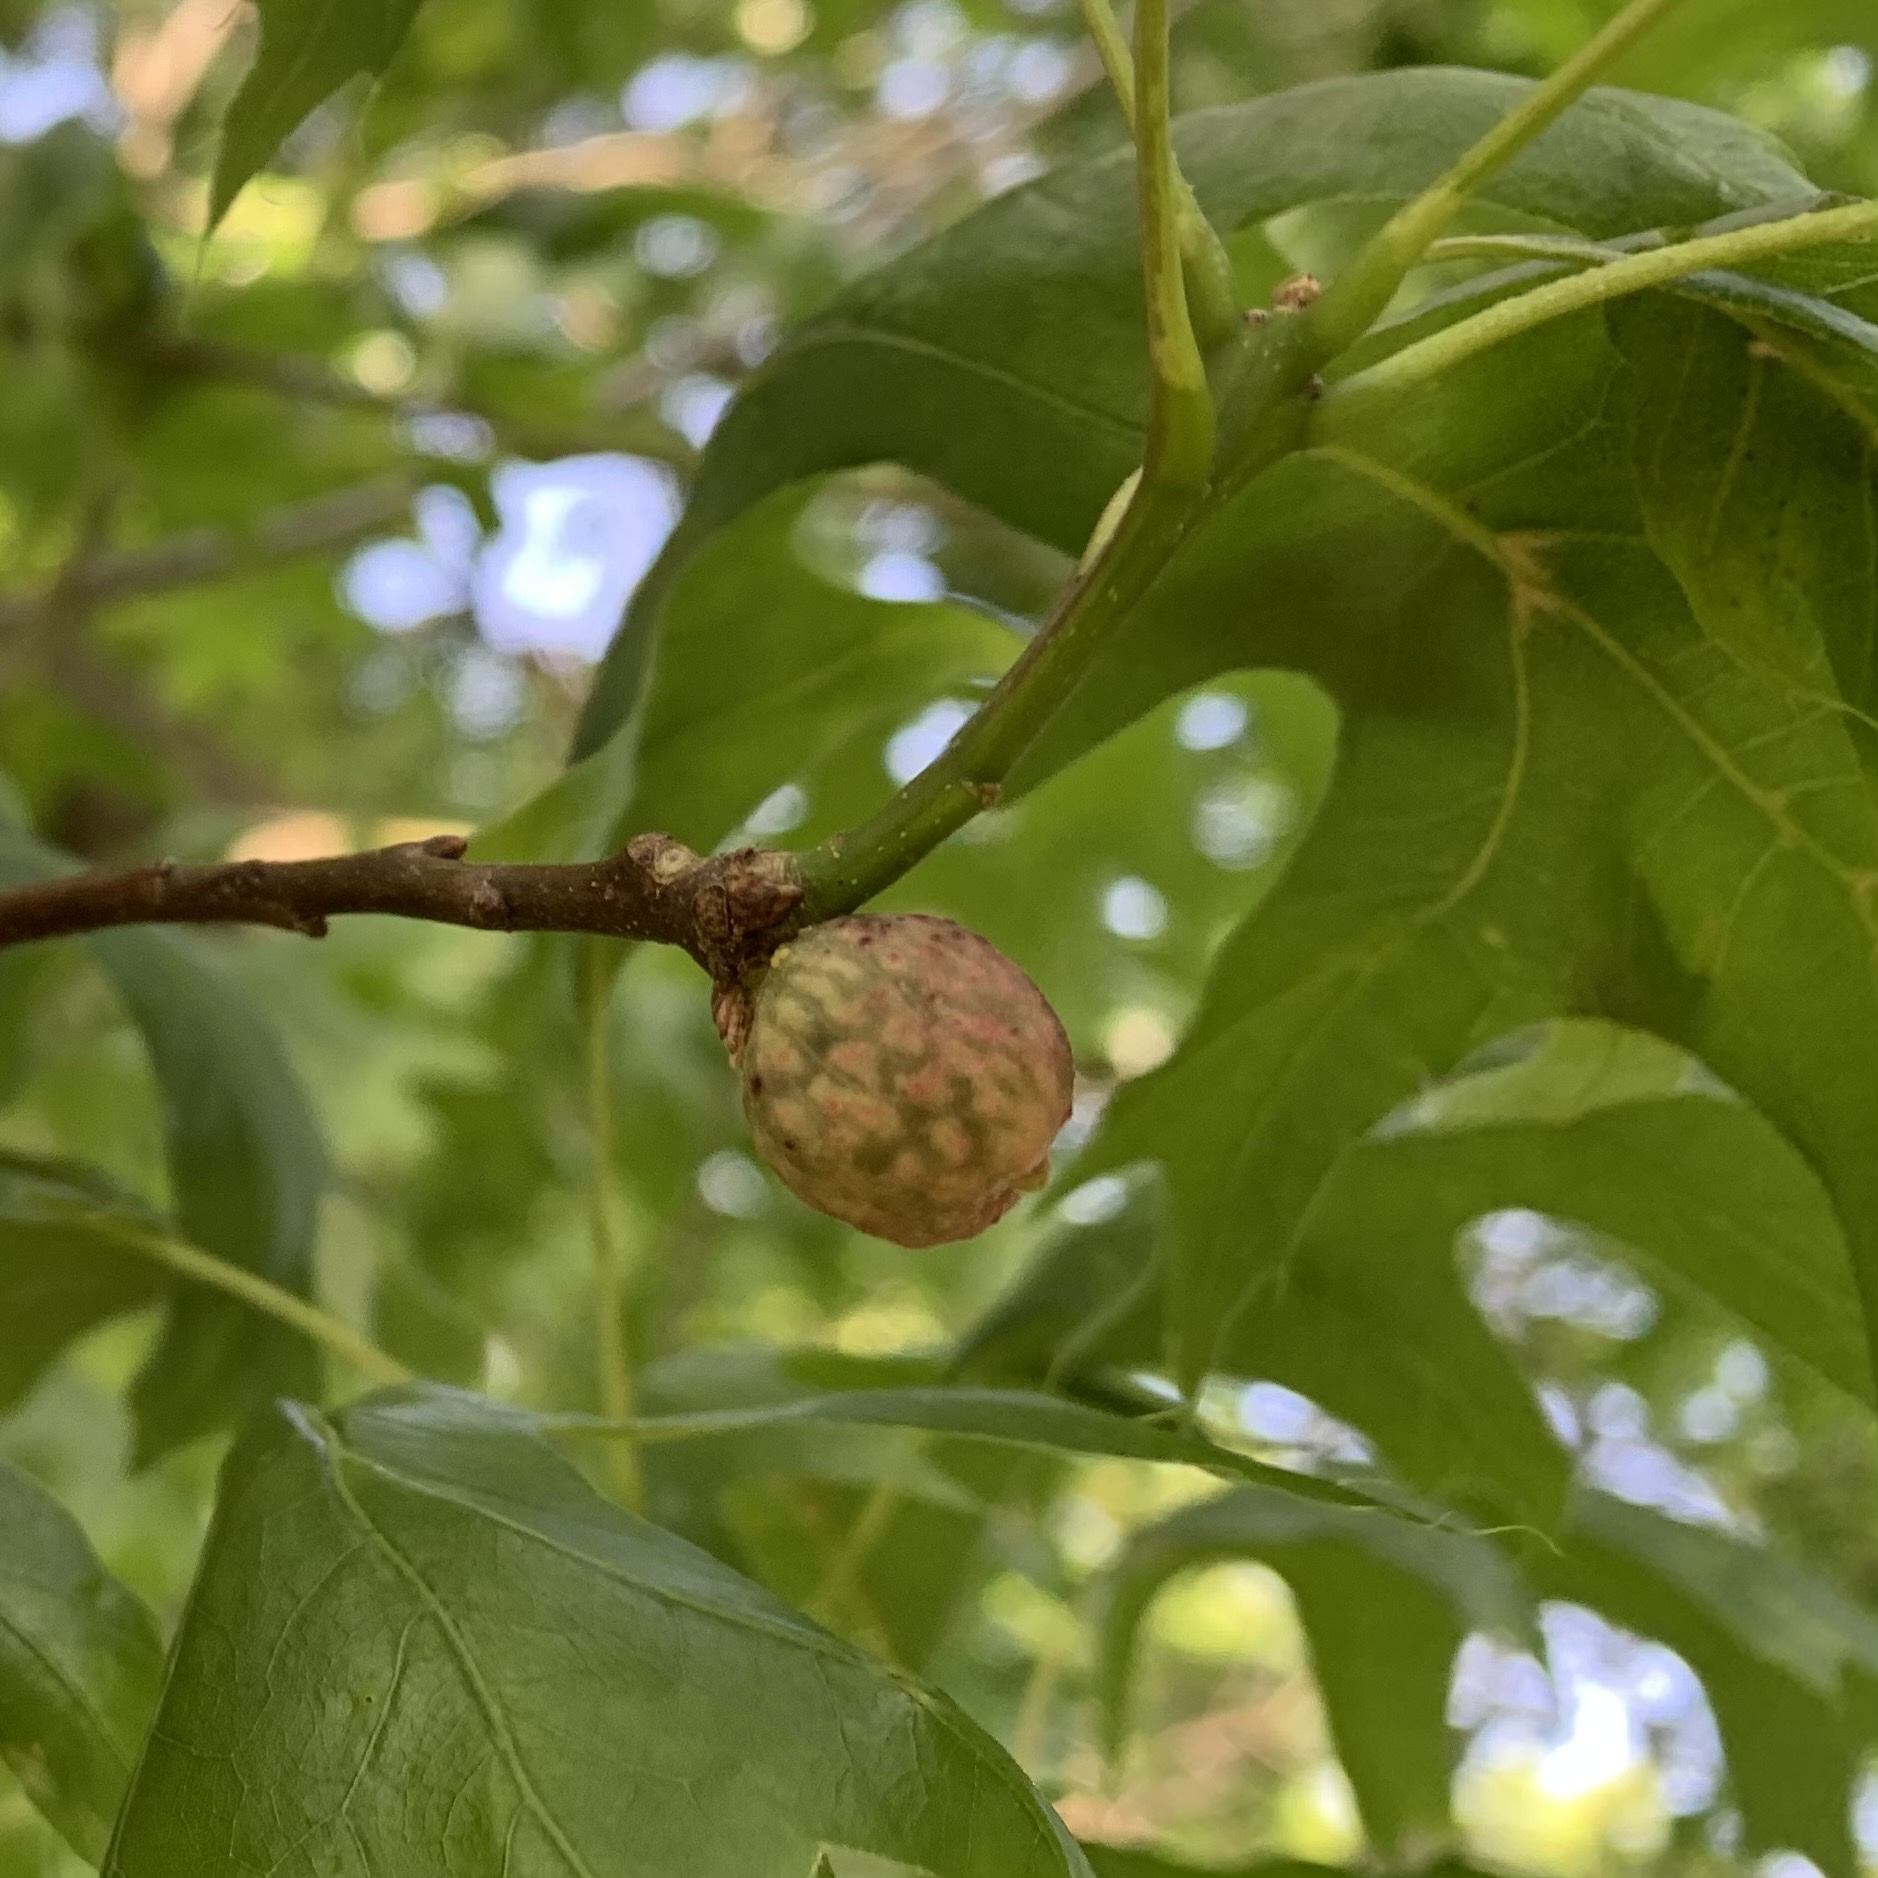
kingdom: Animalia
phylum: Arthropoda
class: Insecta
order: Hymenoptera
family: Cynipidae
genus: Dryocosmus
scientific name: Dryocosmus quercuspalustris
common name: Succulent oak gall wasp
